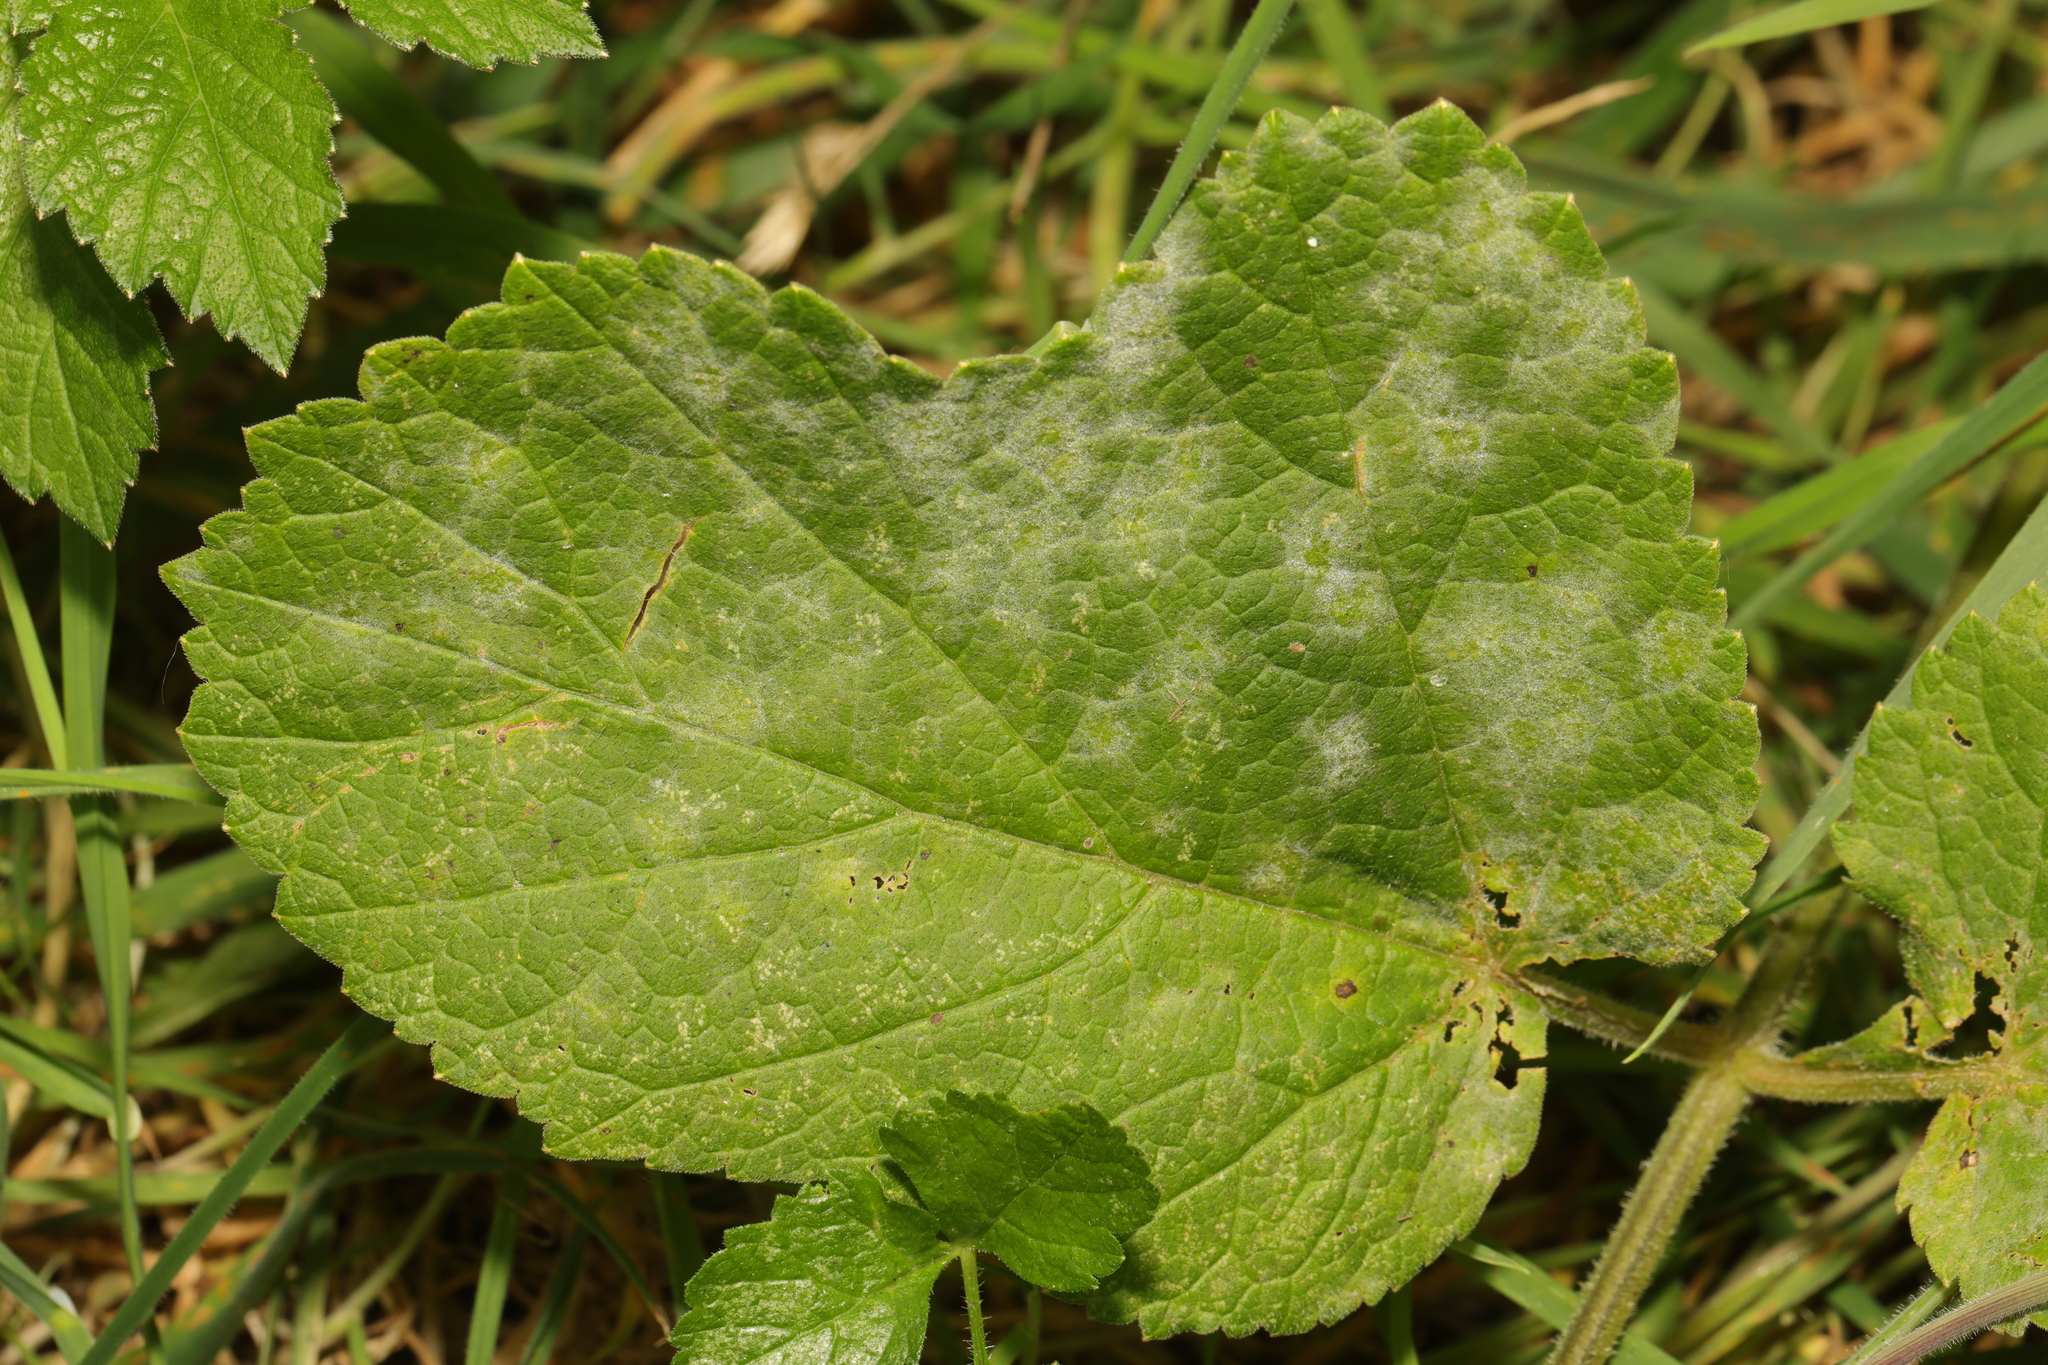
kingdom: Fungi
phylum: Ascomycota
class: Leotiomycetes
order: Helotiales
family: Erysiphaceae
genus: Erysiphe
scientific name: Erysiphe heraclei
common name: Umbellifer mildew
